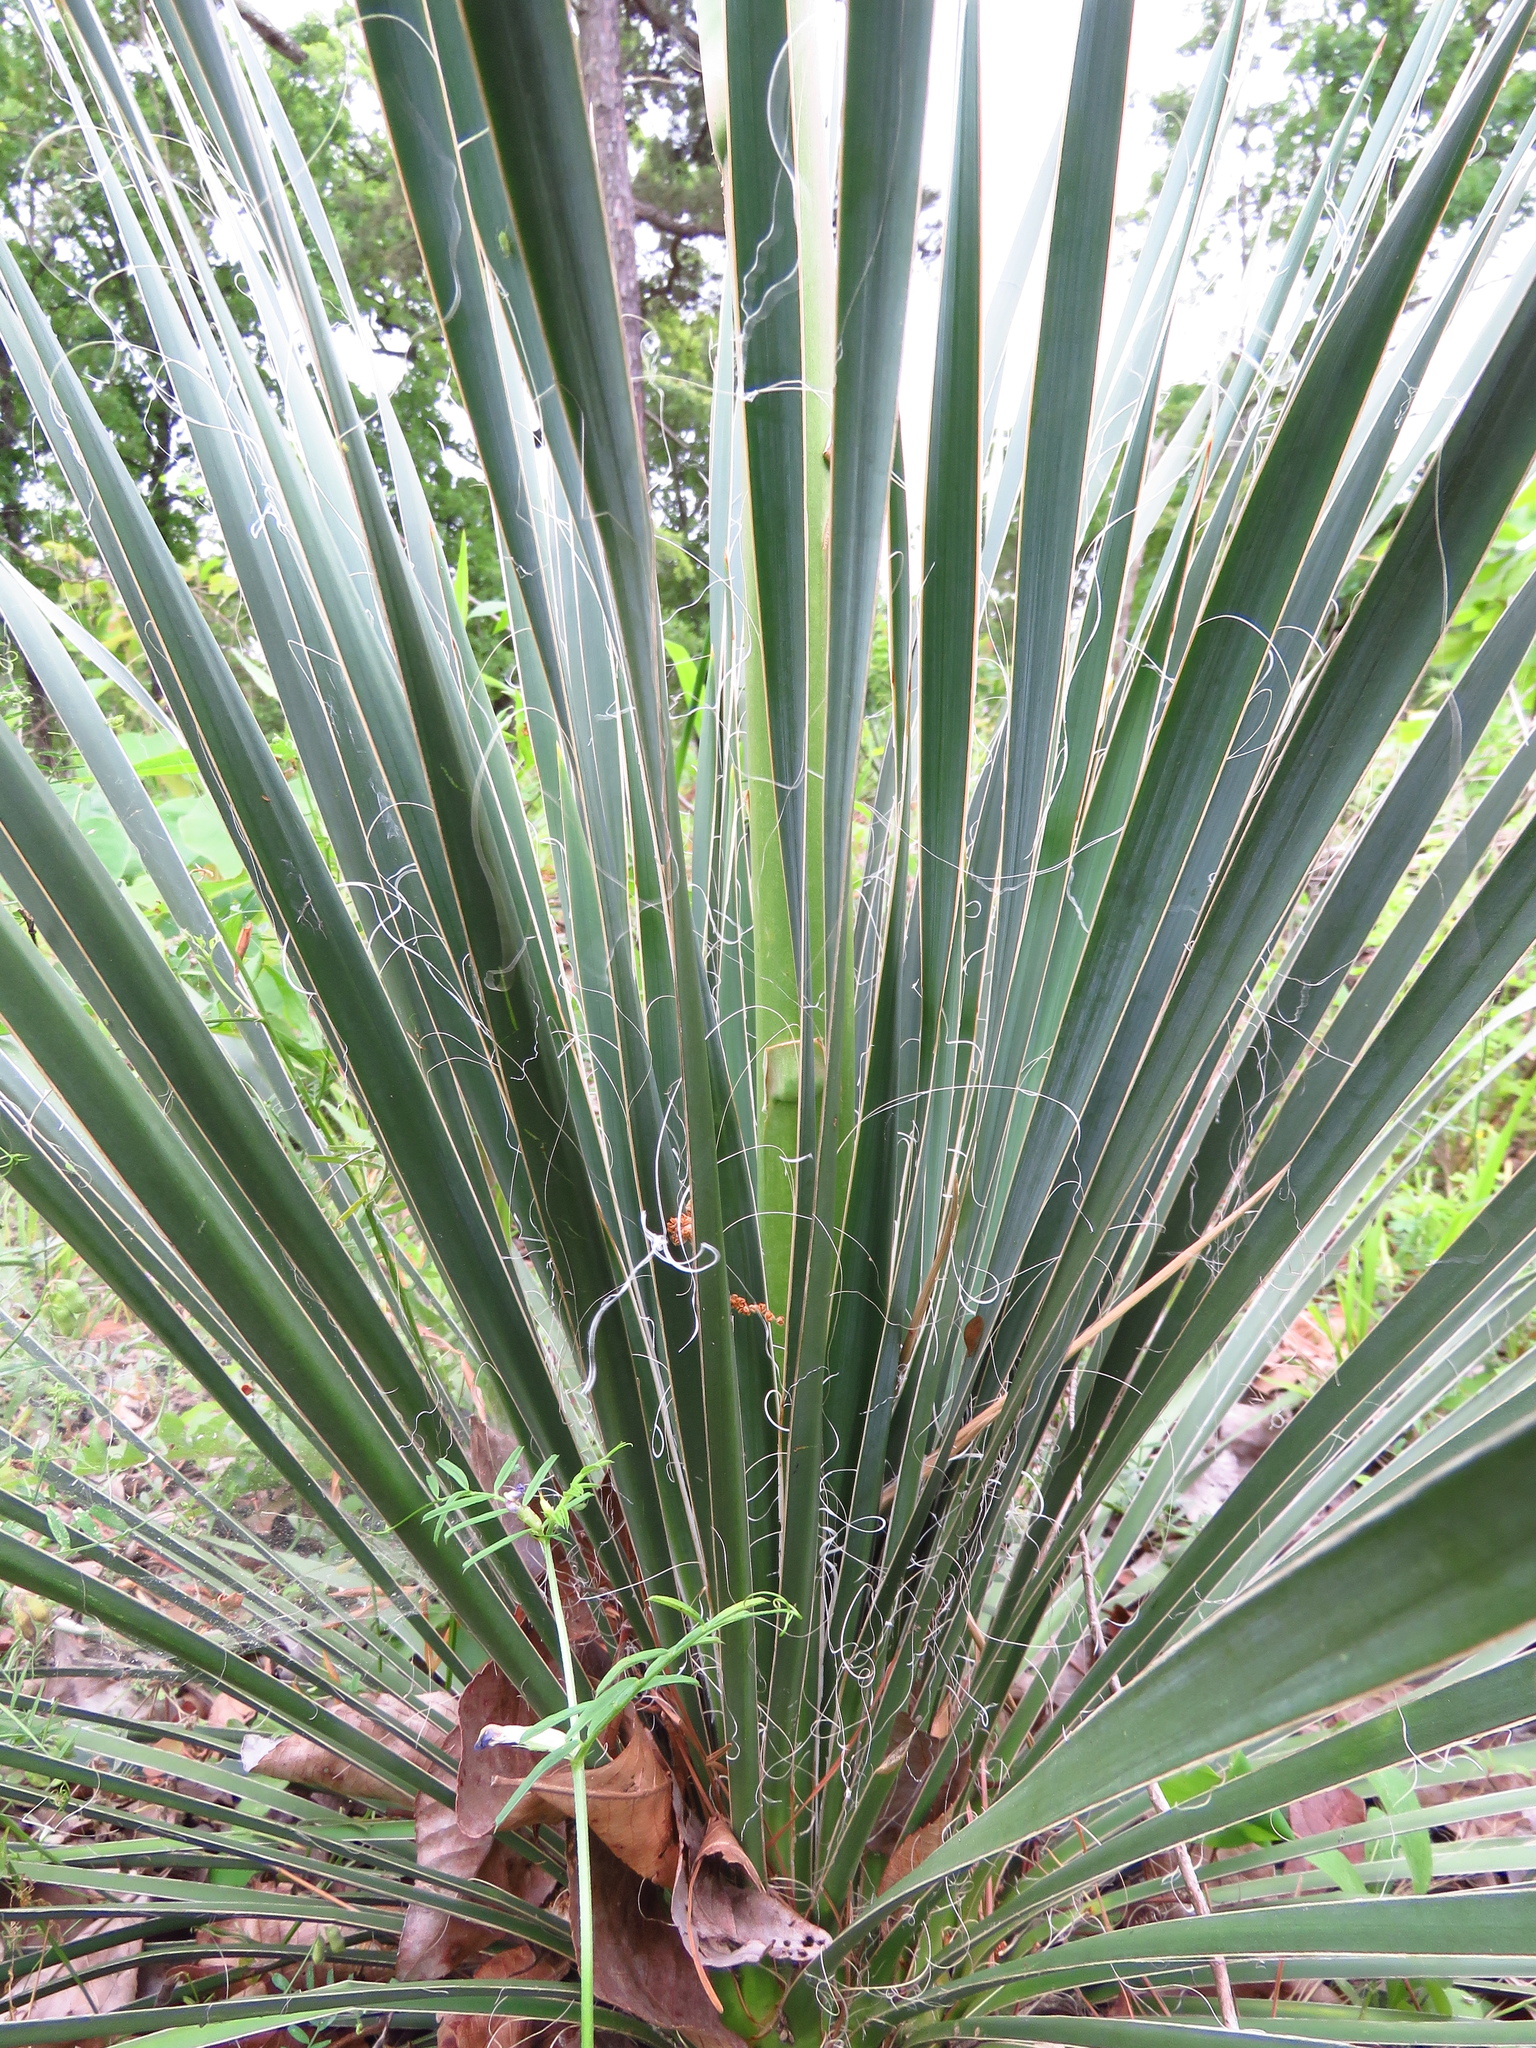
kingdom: Plantae
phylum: Tracheophyta
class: Liliopsida
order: Asparagales
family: Asparagaceae
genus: Yucca
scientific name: Yucca flaccida
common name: Adam's-needle
